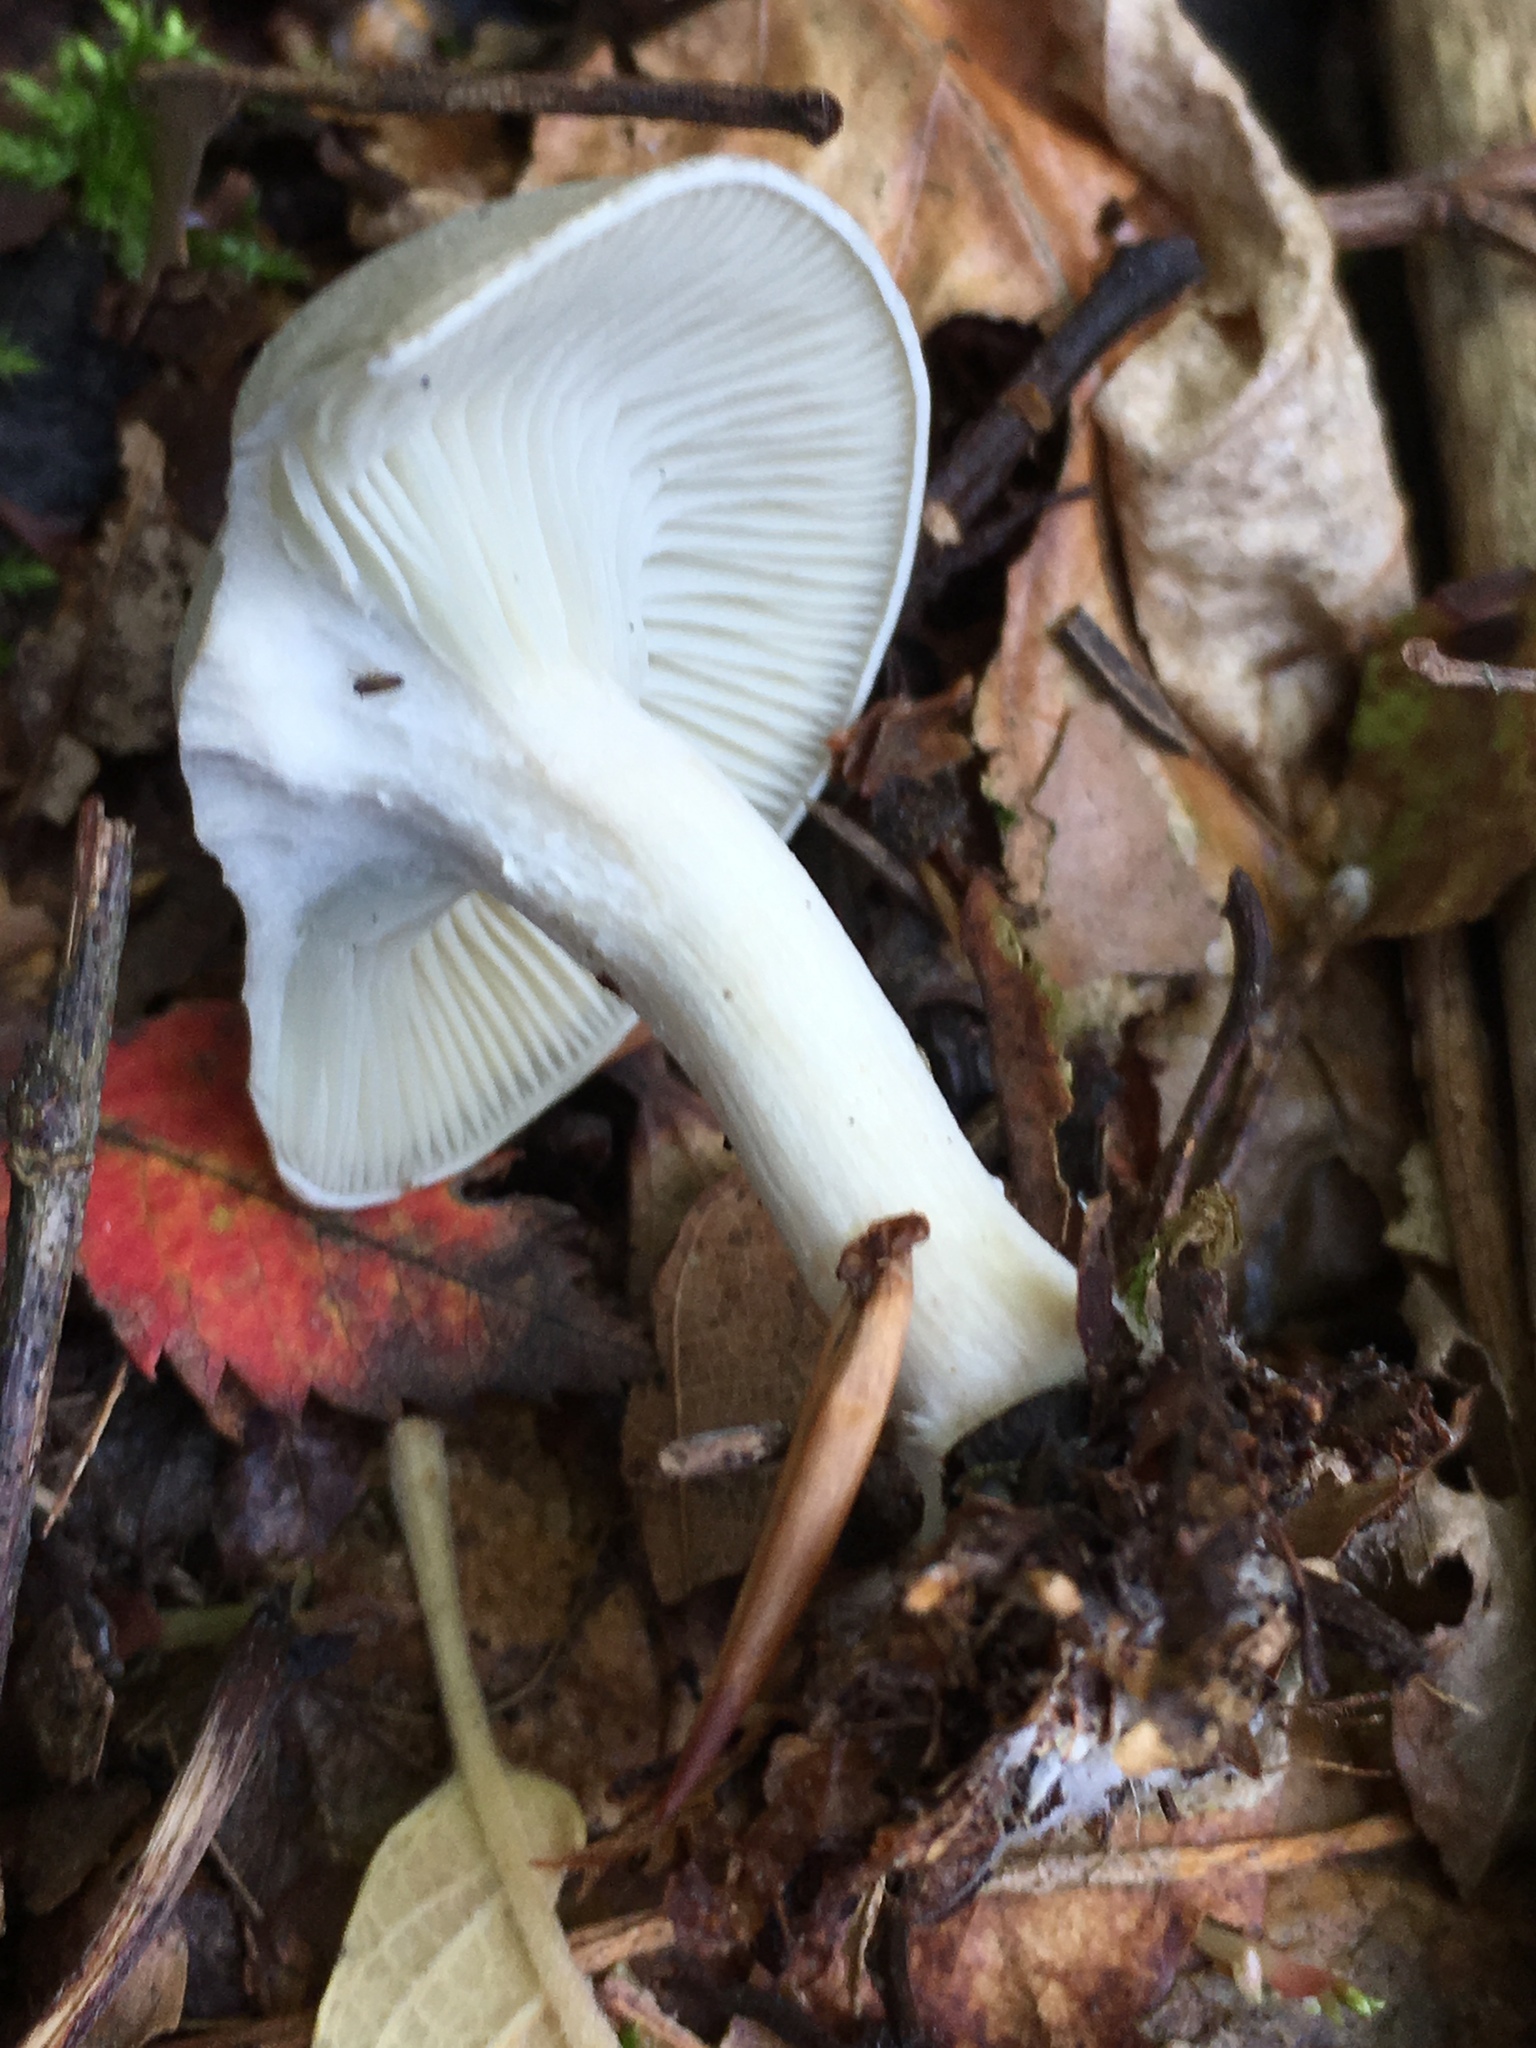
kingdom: Fungi
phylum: Basidiomycota
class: Agaricomycetes
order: Agaricales
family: Hygrophoraceae
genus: Hygrophorus
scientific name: Hygrophorus eburneus
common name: Ivory wax-cap
